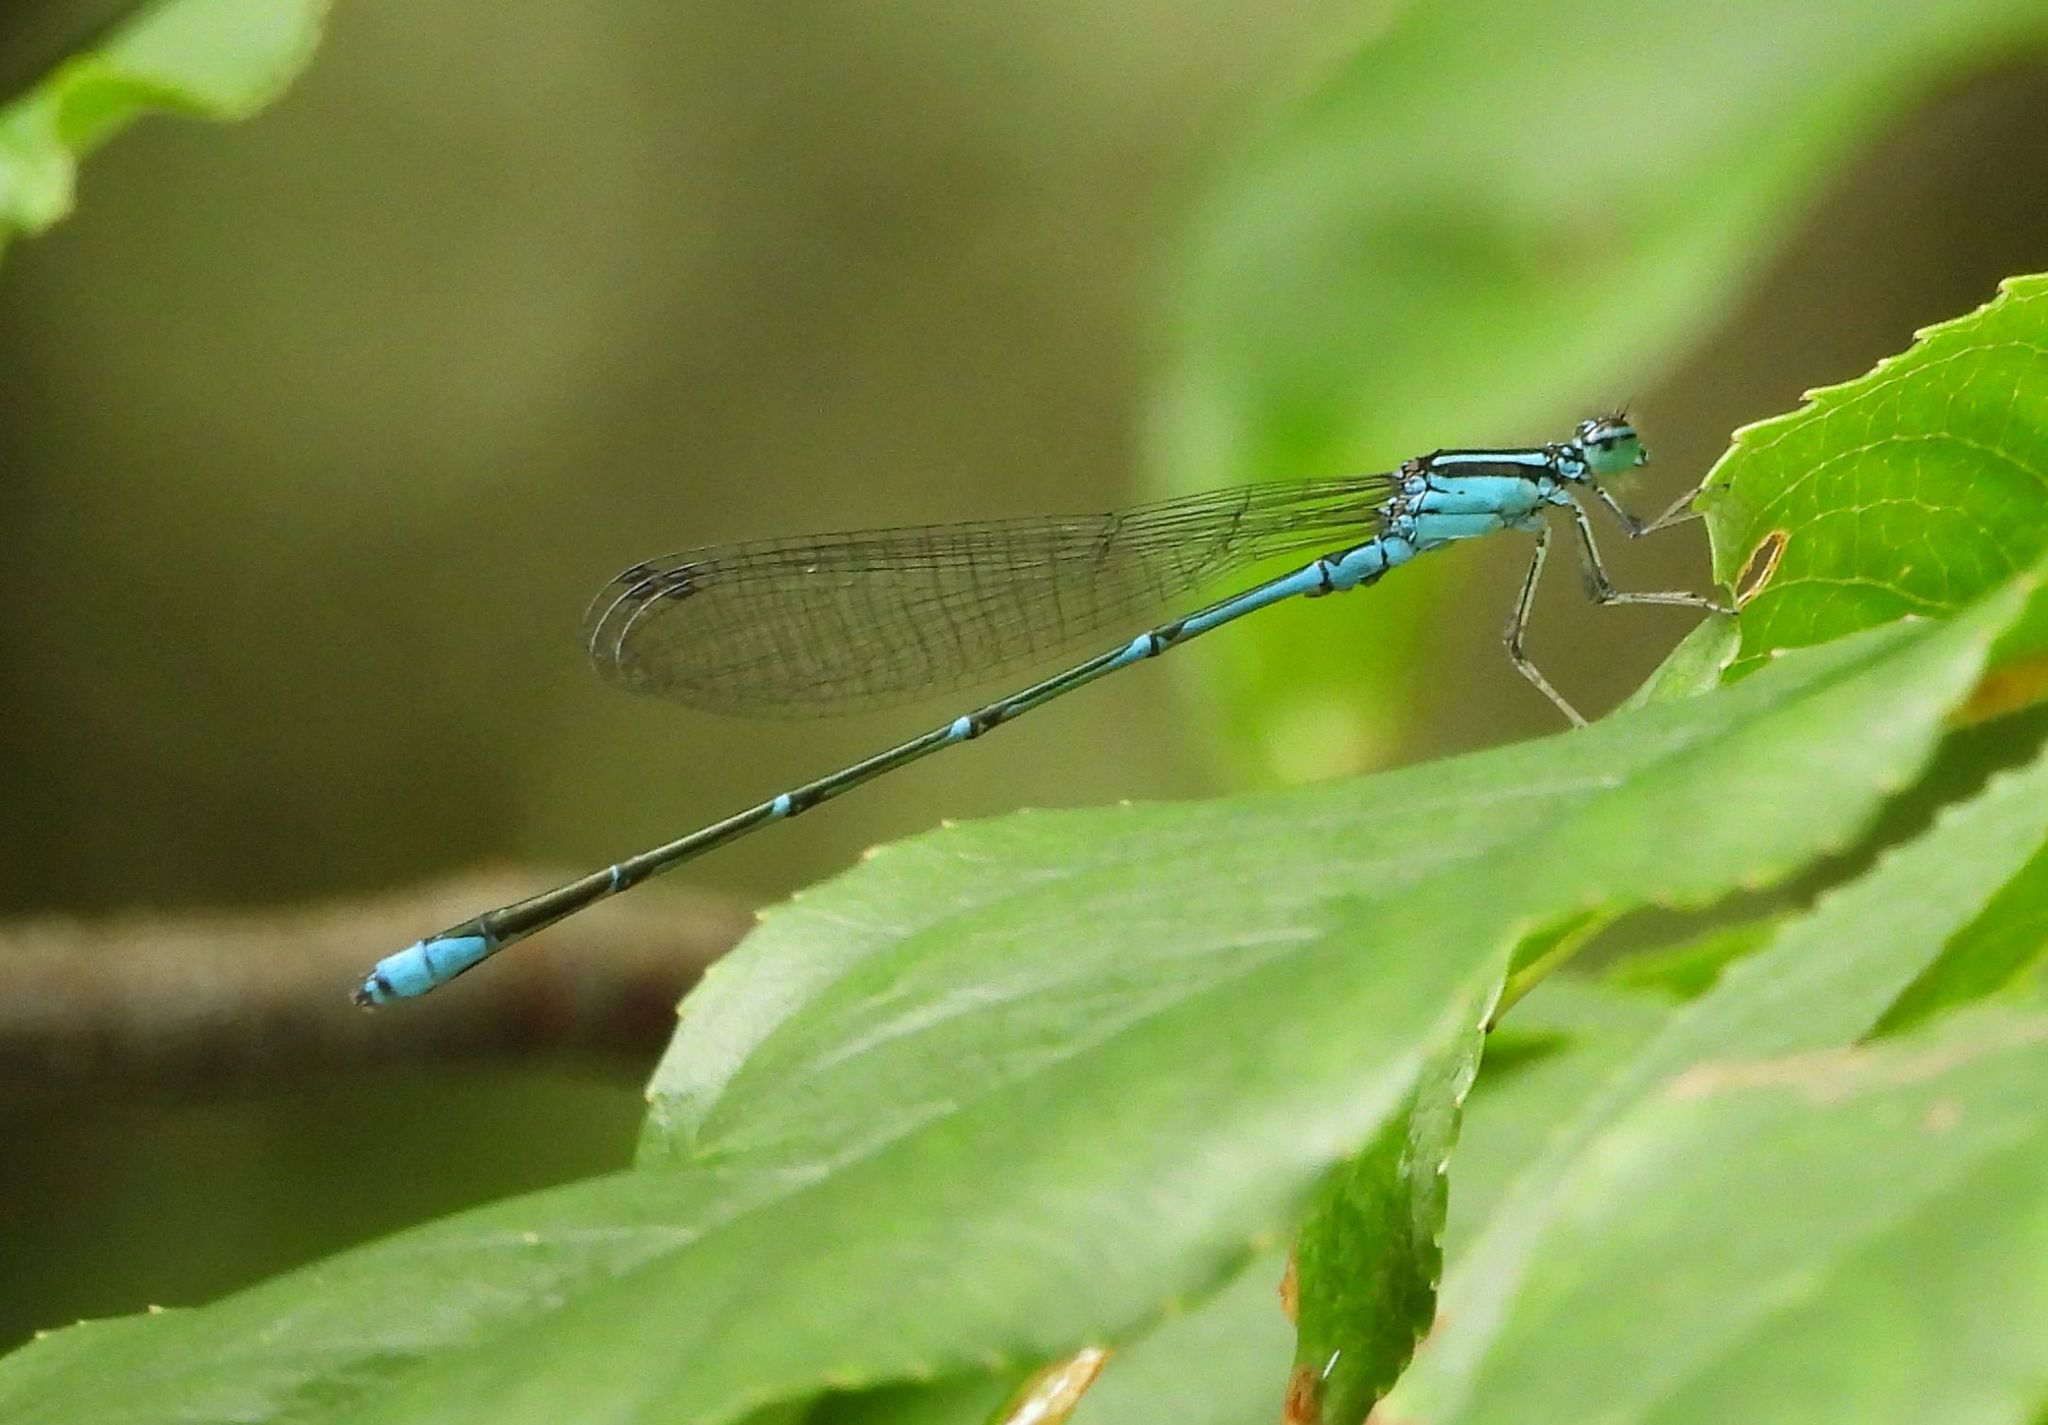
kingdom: Animalia
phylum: Arthropoda
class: Insecta
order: Odonata
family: Coenagrionidae
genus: Enallagma
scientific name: Enallagma exsulans
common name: Stream bluet
